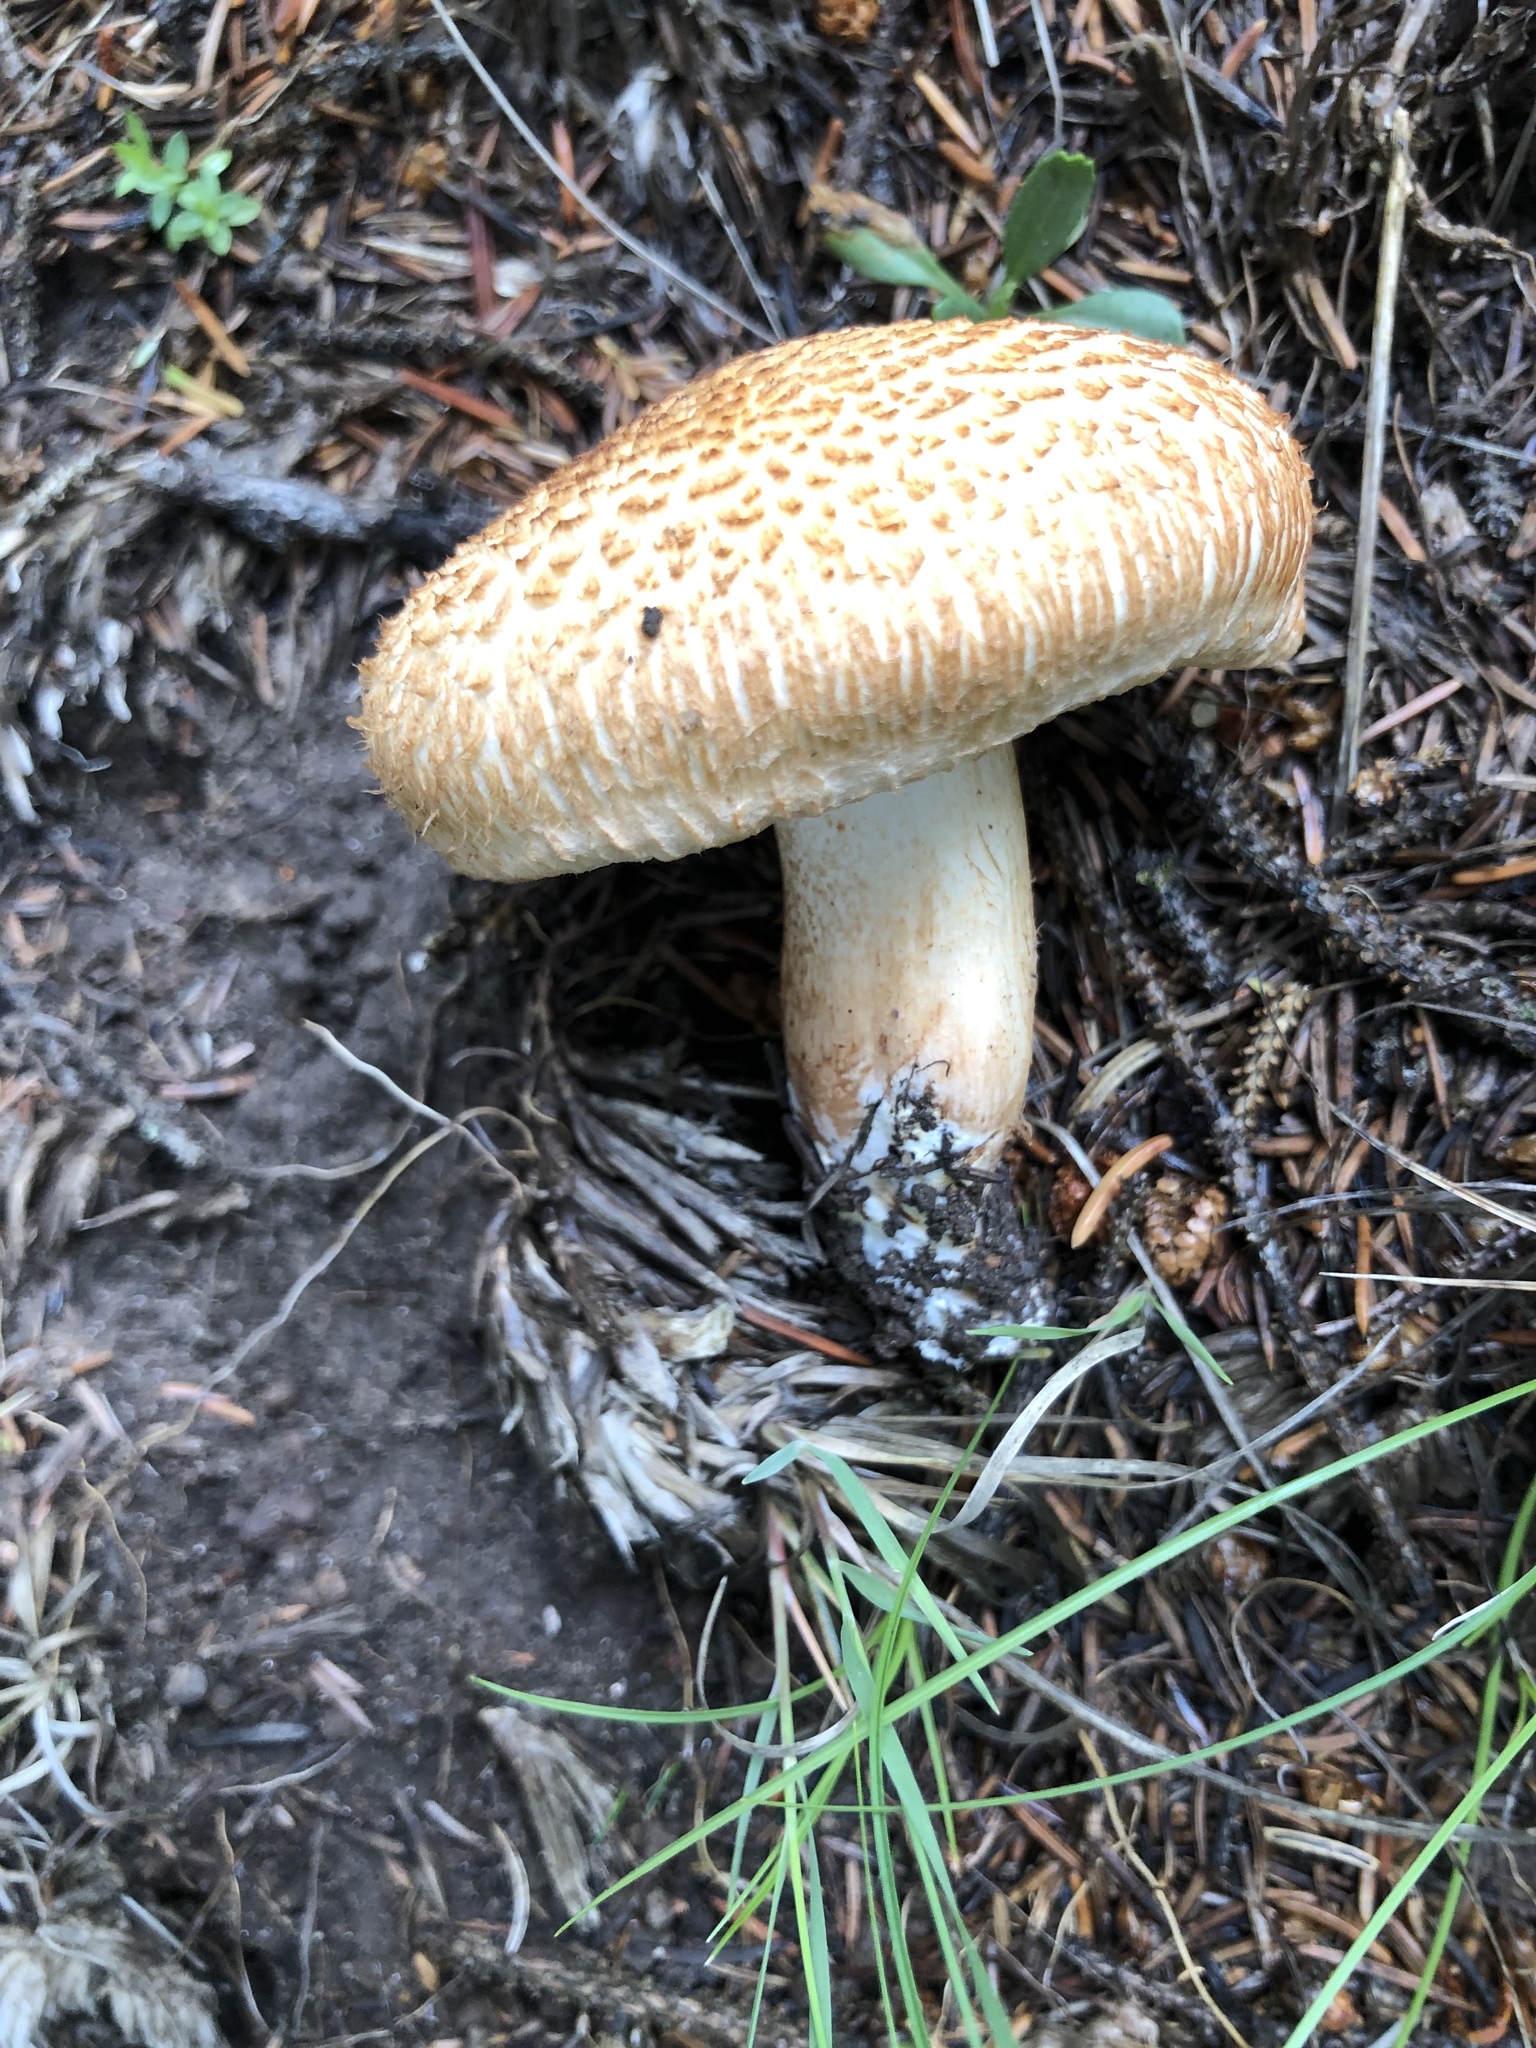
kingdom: Fungi
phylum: Basidiomycota
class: Agaricomycetes
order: Agaricales
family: Tricholomataceae
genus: Tricholoma
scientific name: Tricholoma vaccinum
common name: Scaly knight
